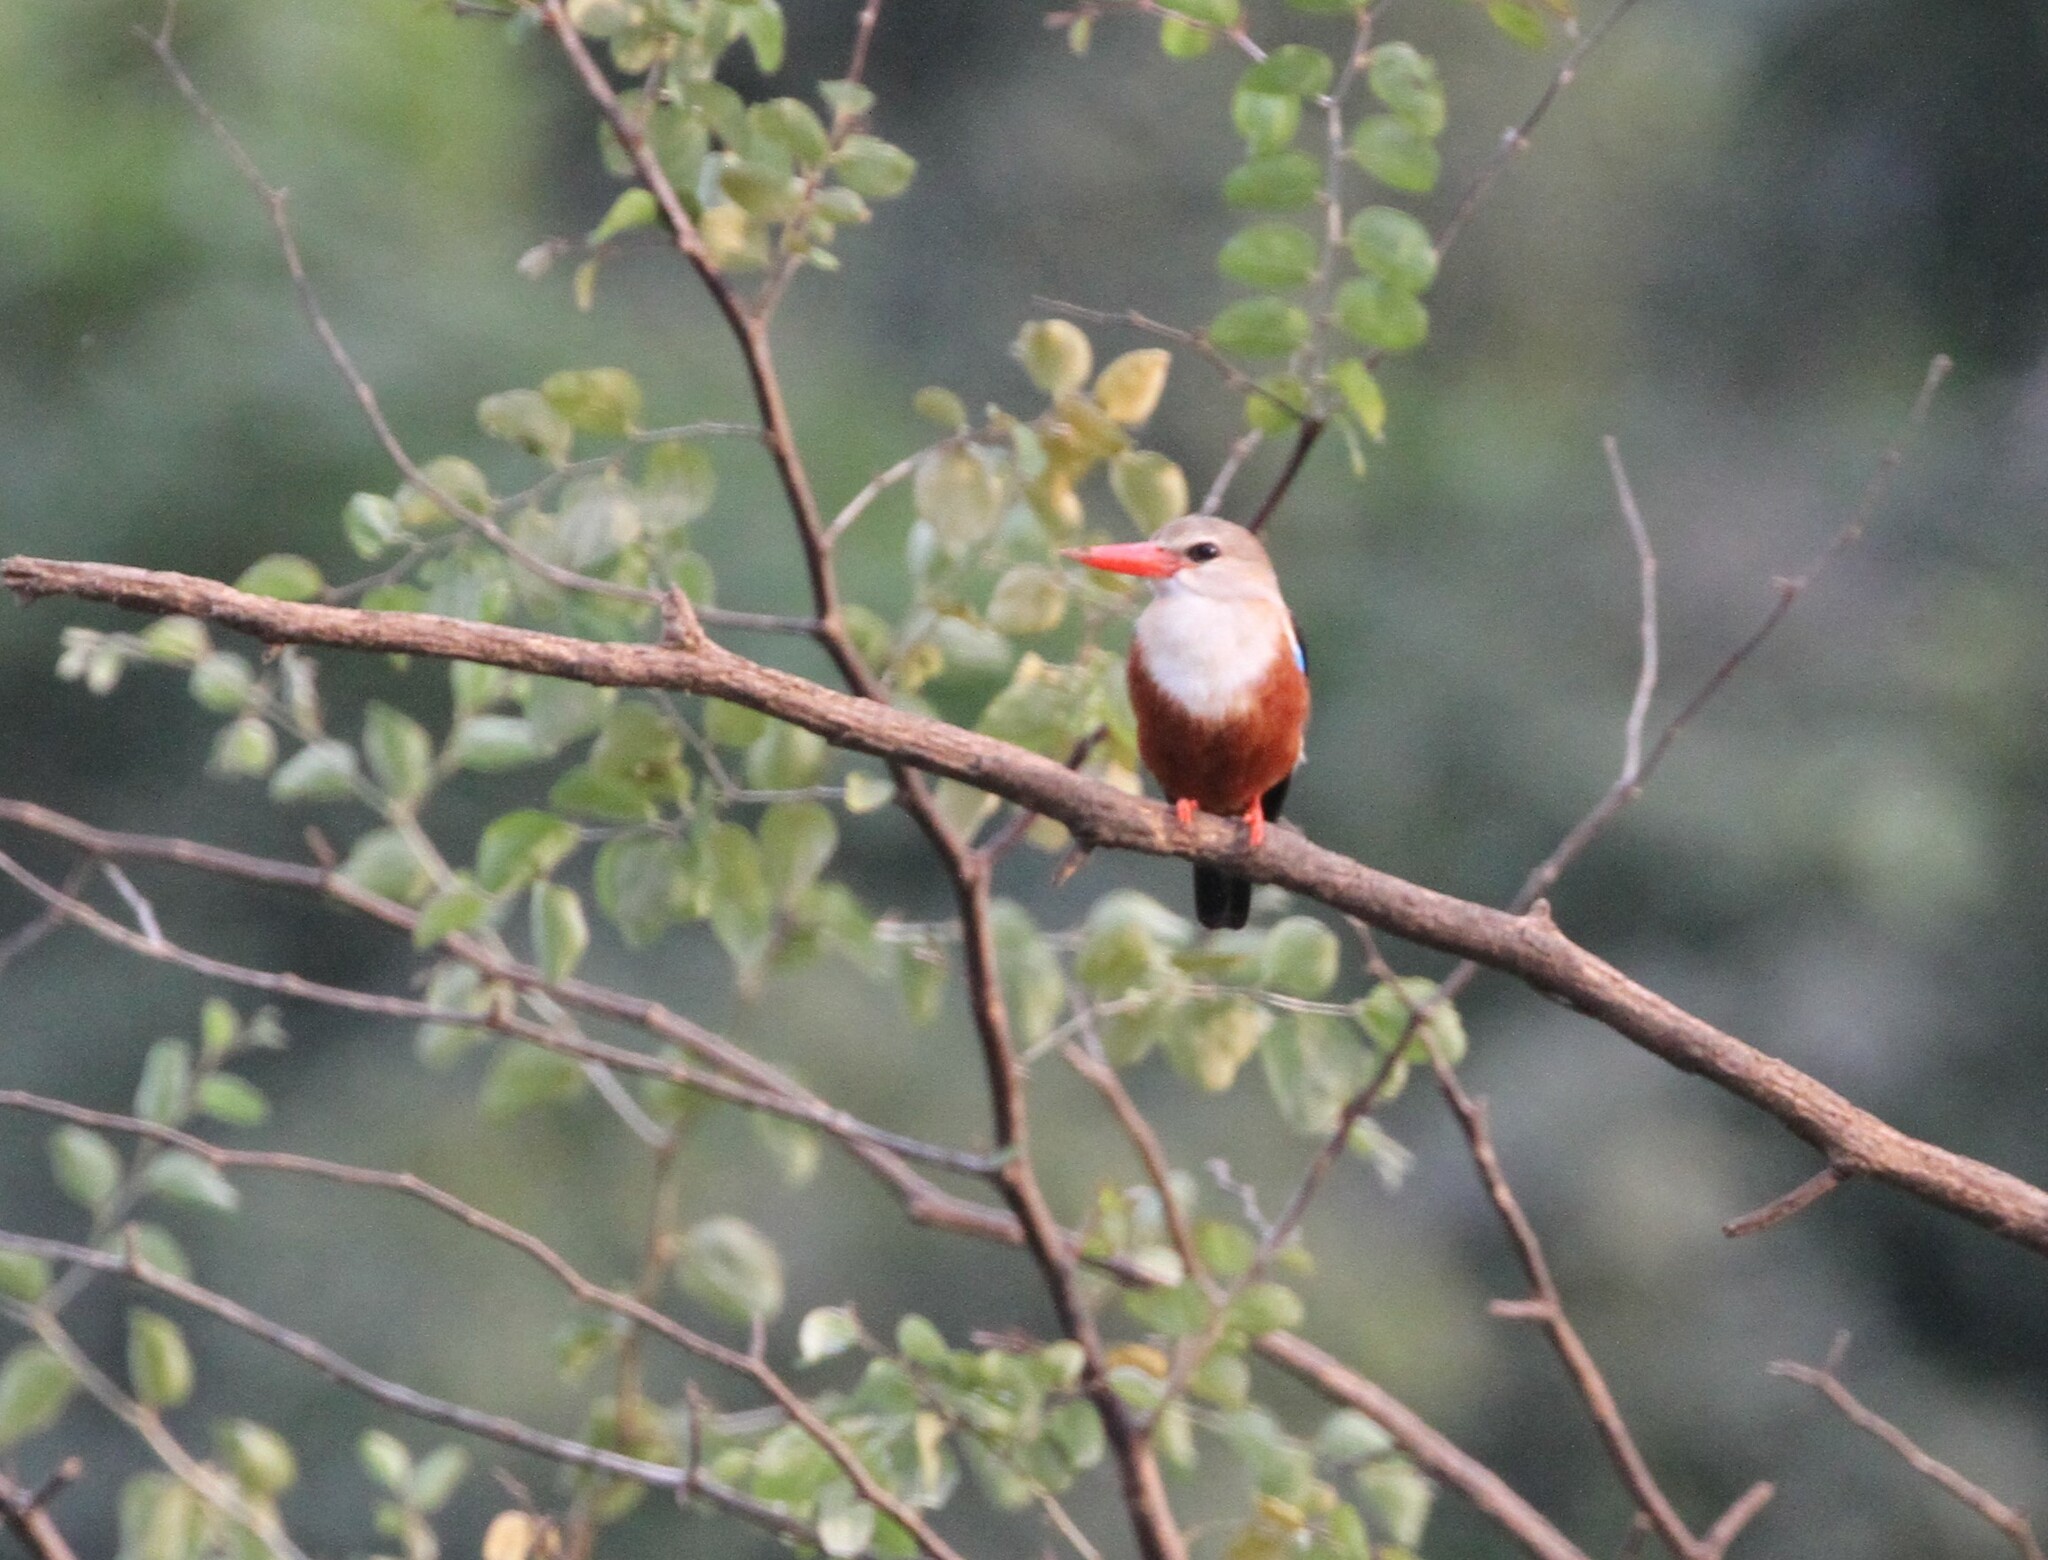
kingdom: Animalia
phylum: Chordata
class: Aves
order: Coraciiformes
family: Alcedinidae
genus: Halcyon
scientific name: Halcyon leucocephala
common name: Grey-headed kingfisher
